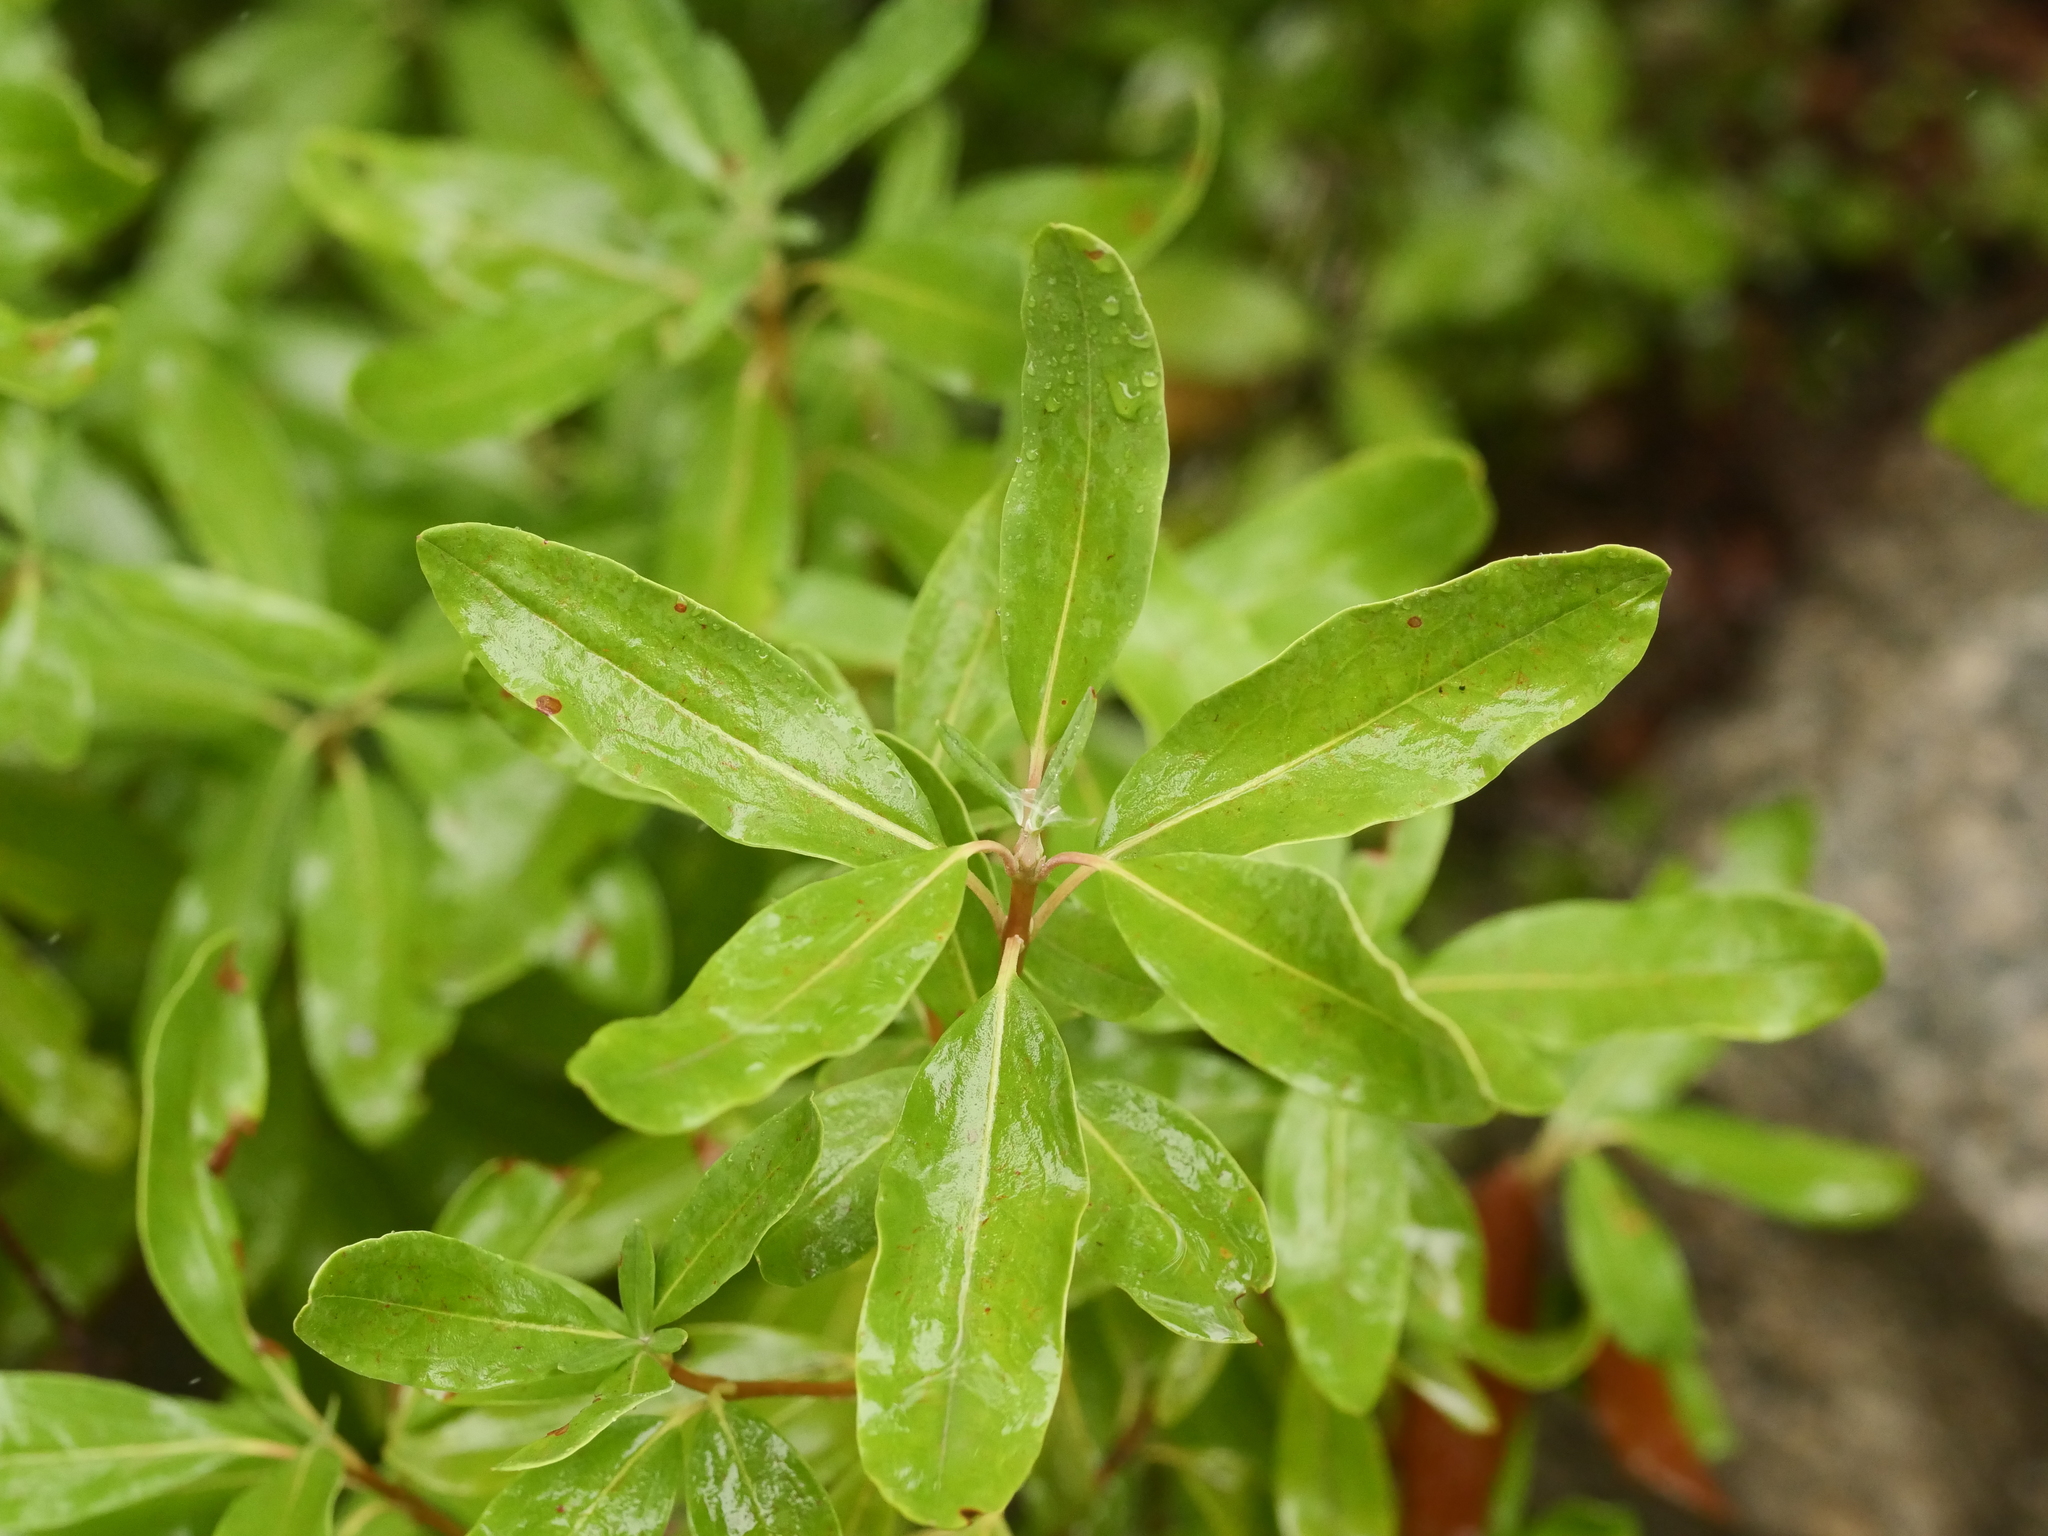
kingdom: Plantae
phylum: Tracheophyta
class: Magnoliopsida
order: Ericales
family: Ericaceae
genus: Kalmia
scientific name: Kalmia angustifolia
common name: Sheep-laurel
